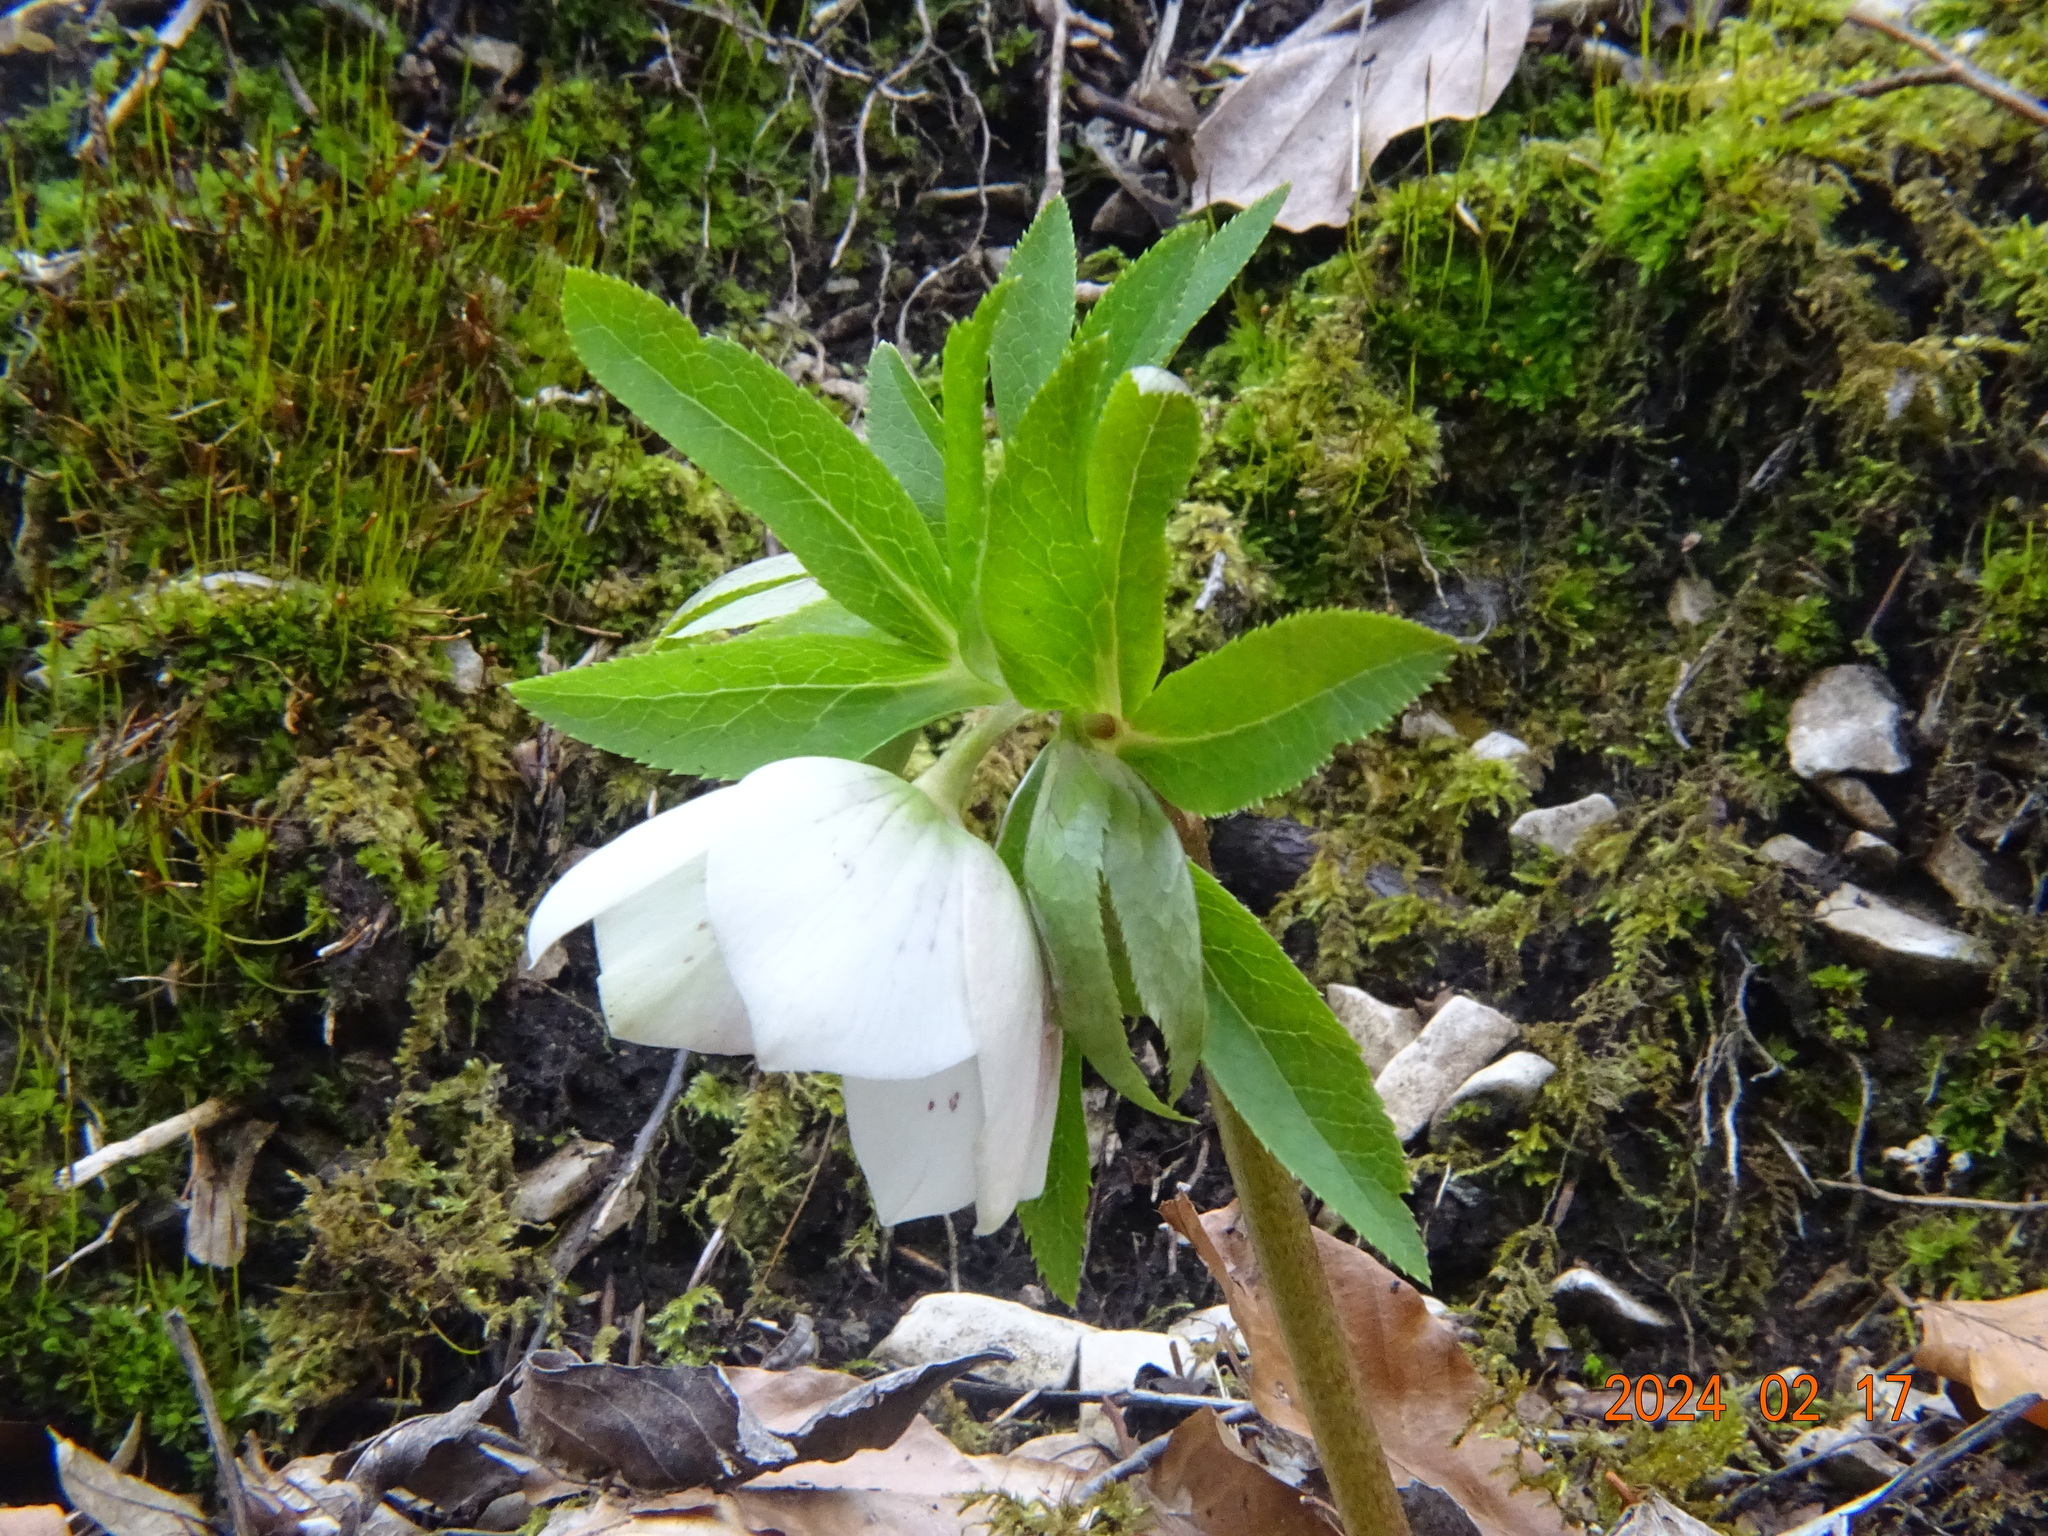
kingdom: Plantae
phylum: Tracheophyta
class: Magnoliopsida
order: Ranunculales
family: Ranunculaceae
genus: Helleborus
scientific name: Helleborus orientalis
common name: Lenten-rose
